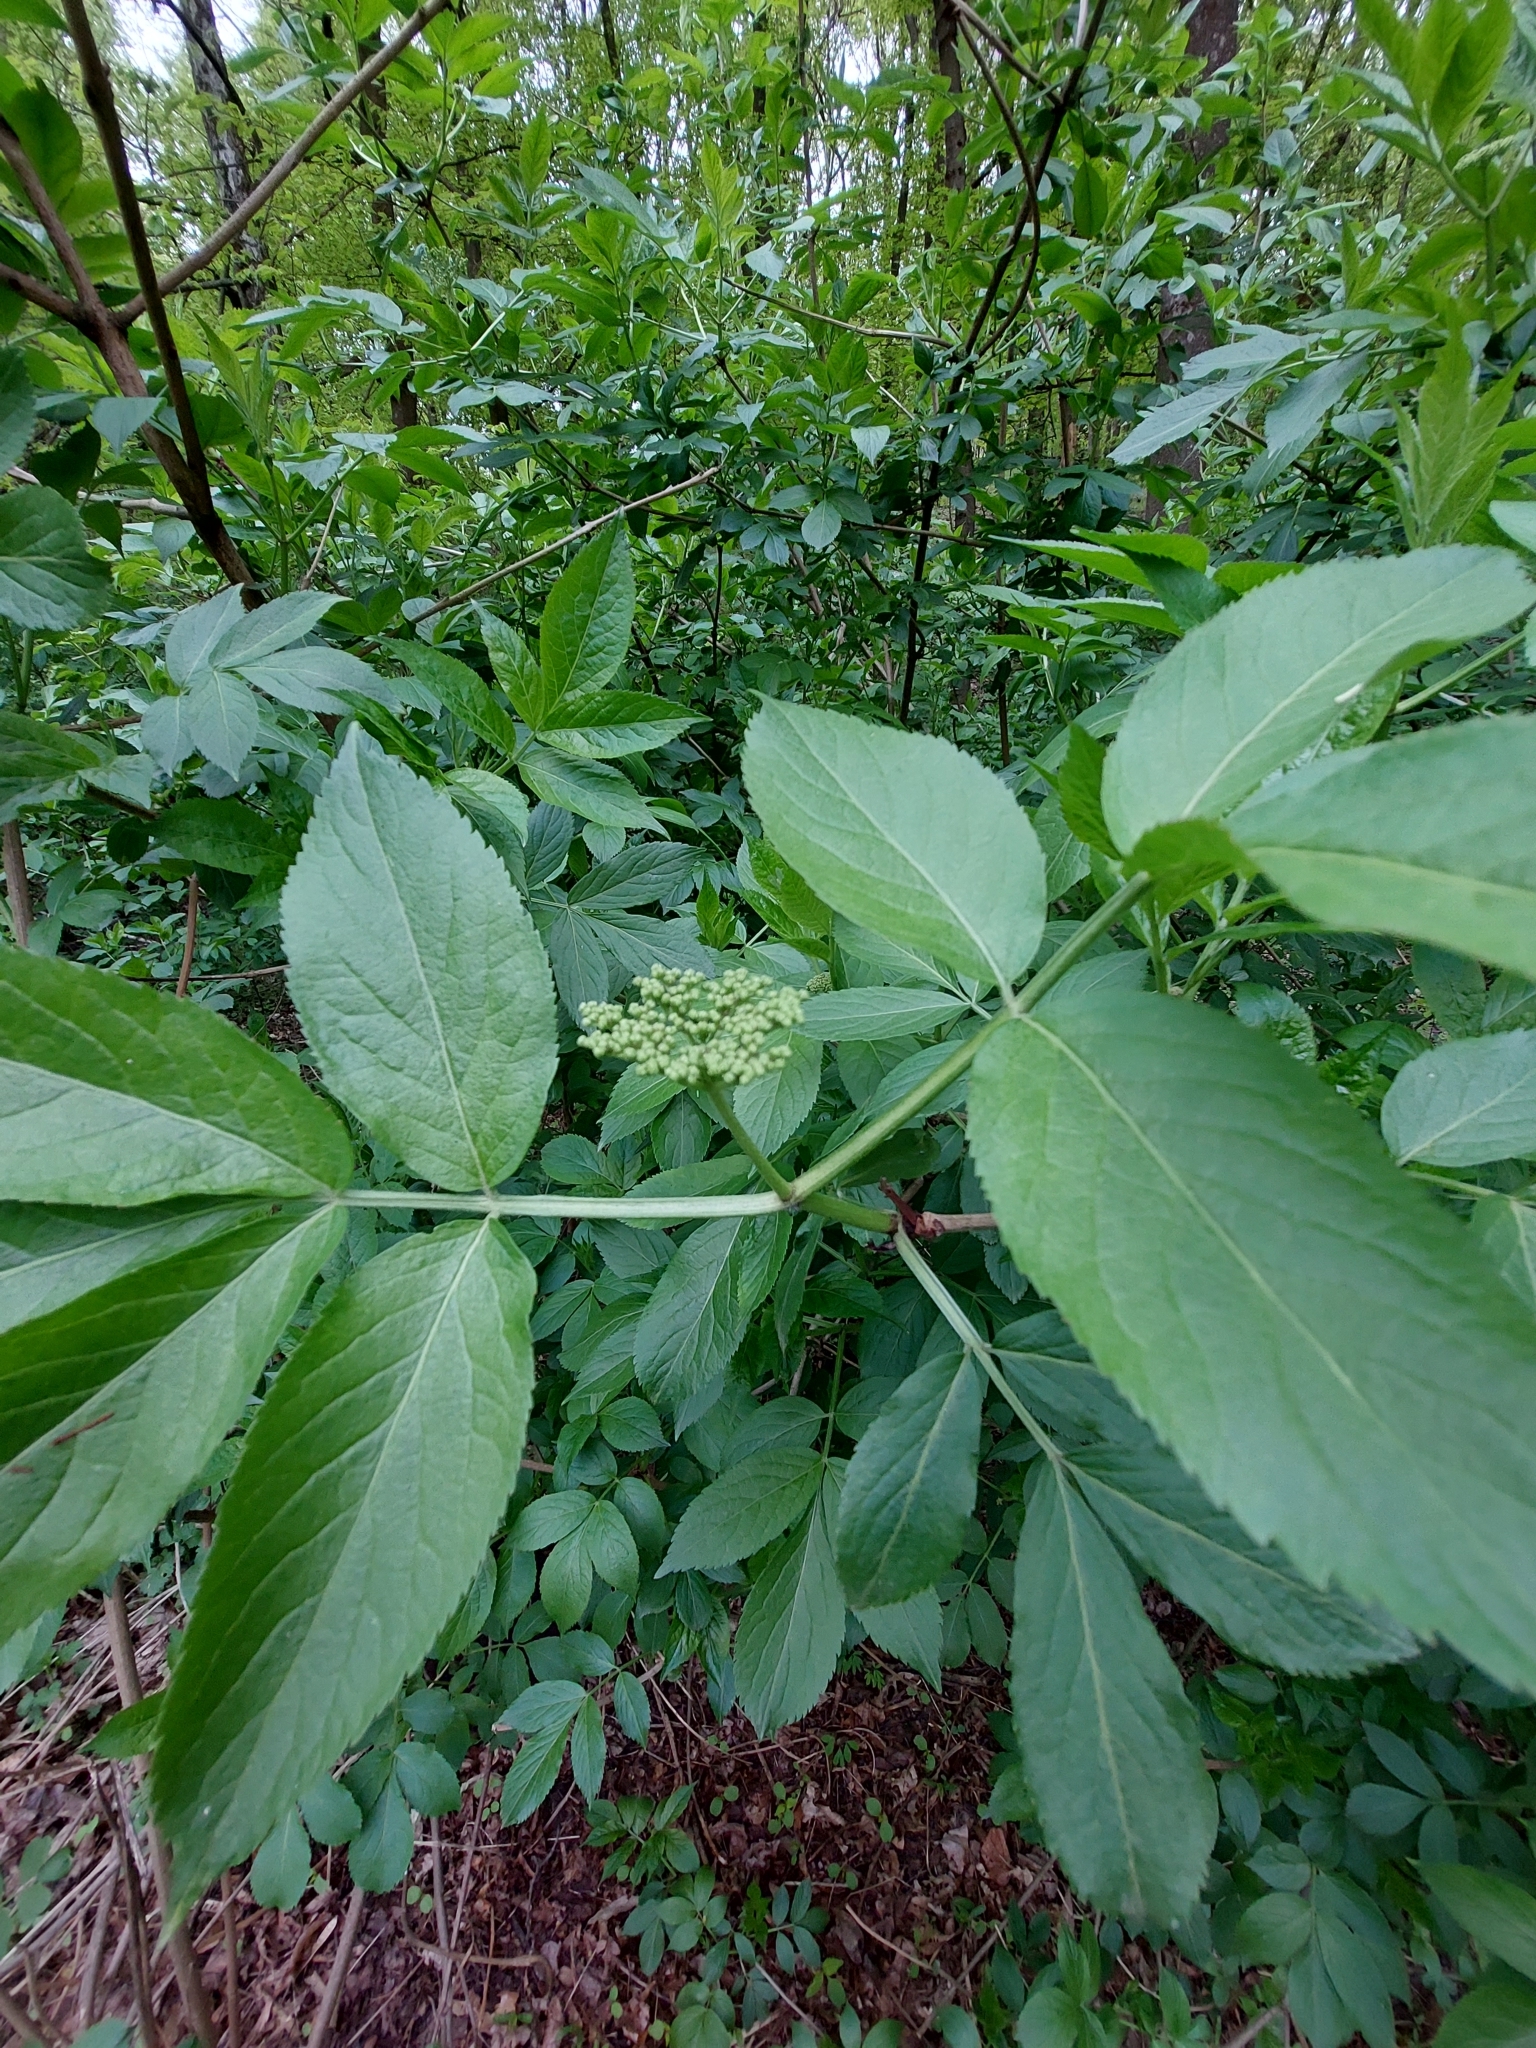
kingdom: Plantae
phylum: Tracheophyta
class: Magnoliopsida
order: Dipsacales
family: Viburnaceae
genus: Sambucus
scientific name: Sambucus nigra
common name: Elder
